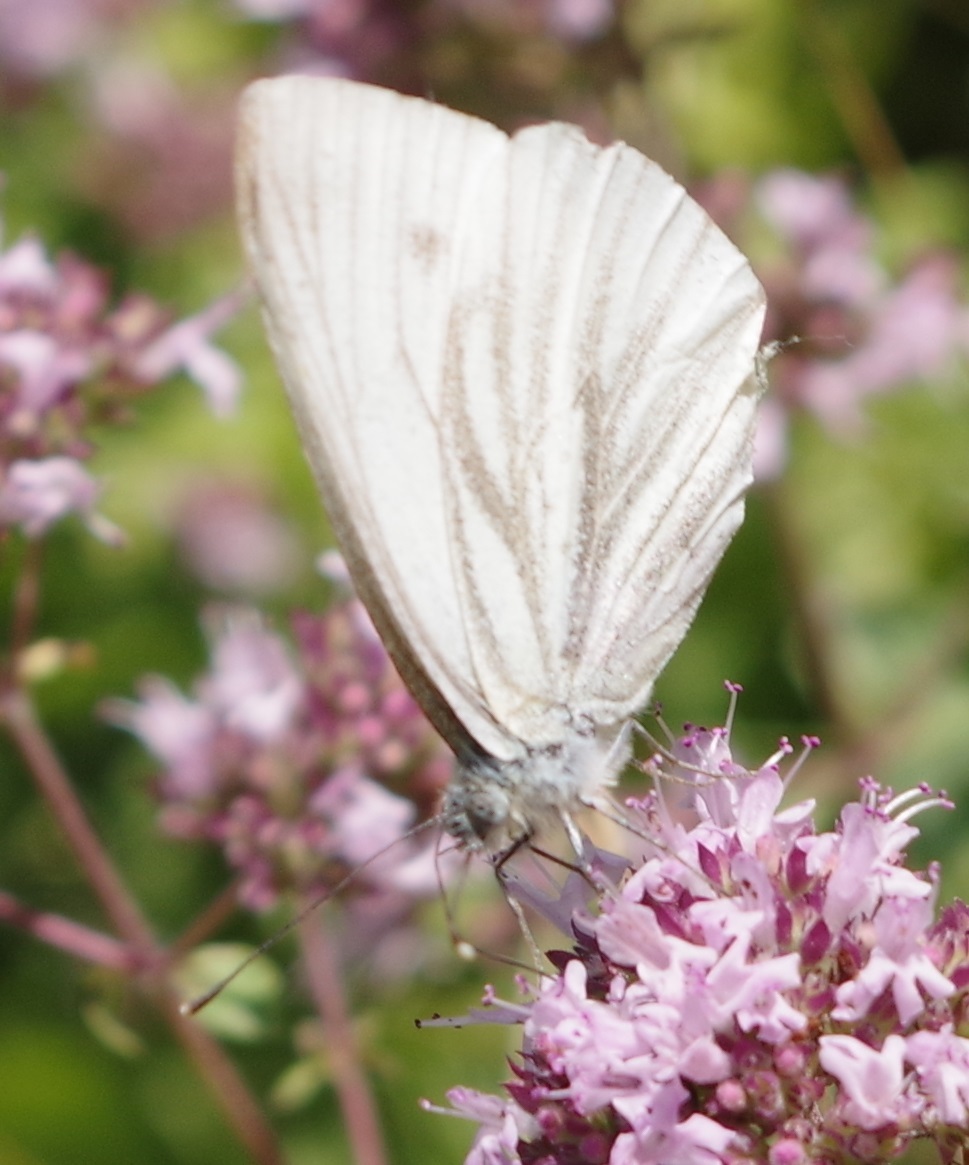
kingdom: Animalia
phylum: Arthropoda
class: Insecta
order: Lepidoptera
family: Pieridae
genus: Pieris
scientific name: Pieris napi
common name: Green-veined white
